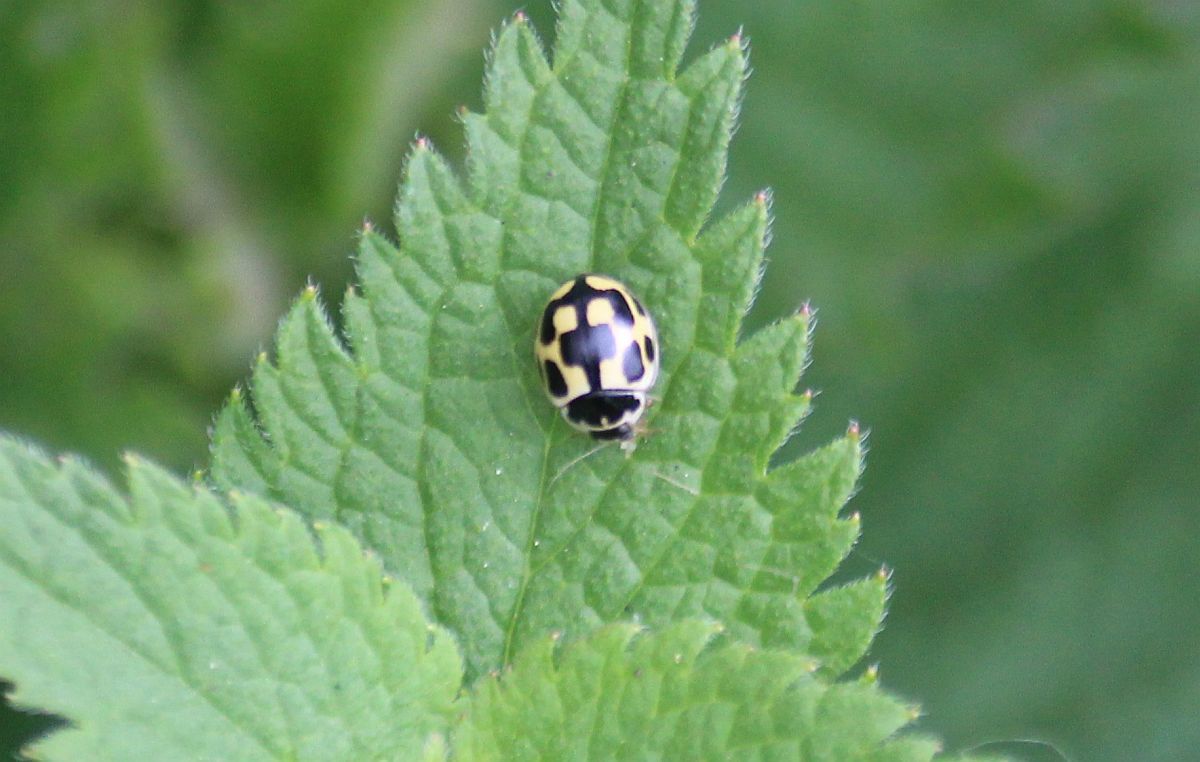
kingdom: Animalia
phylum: Arthropoda
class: Insecta
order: Coleoptera
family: Coccinellidae
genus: Propylaea
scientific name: Propylaea quatuordecimpunctata
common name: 14-spotted ladybird beetle
